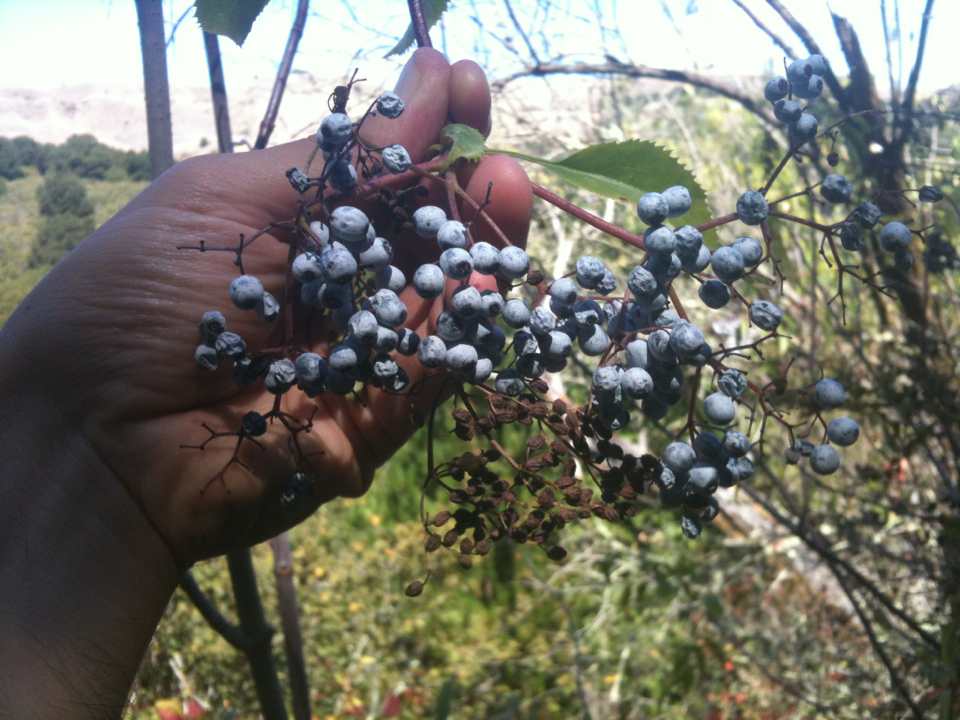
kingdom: Plantae
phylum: Tracheophyta
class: Magnoliopsida
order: Dipsacales
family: Viburnaceae
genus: Sambucus
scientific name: Sambucus cerulea
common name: Blue elder
